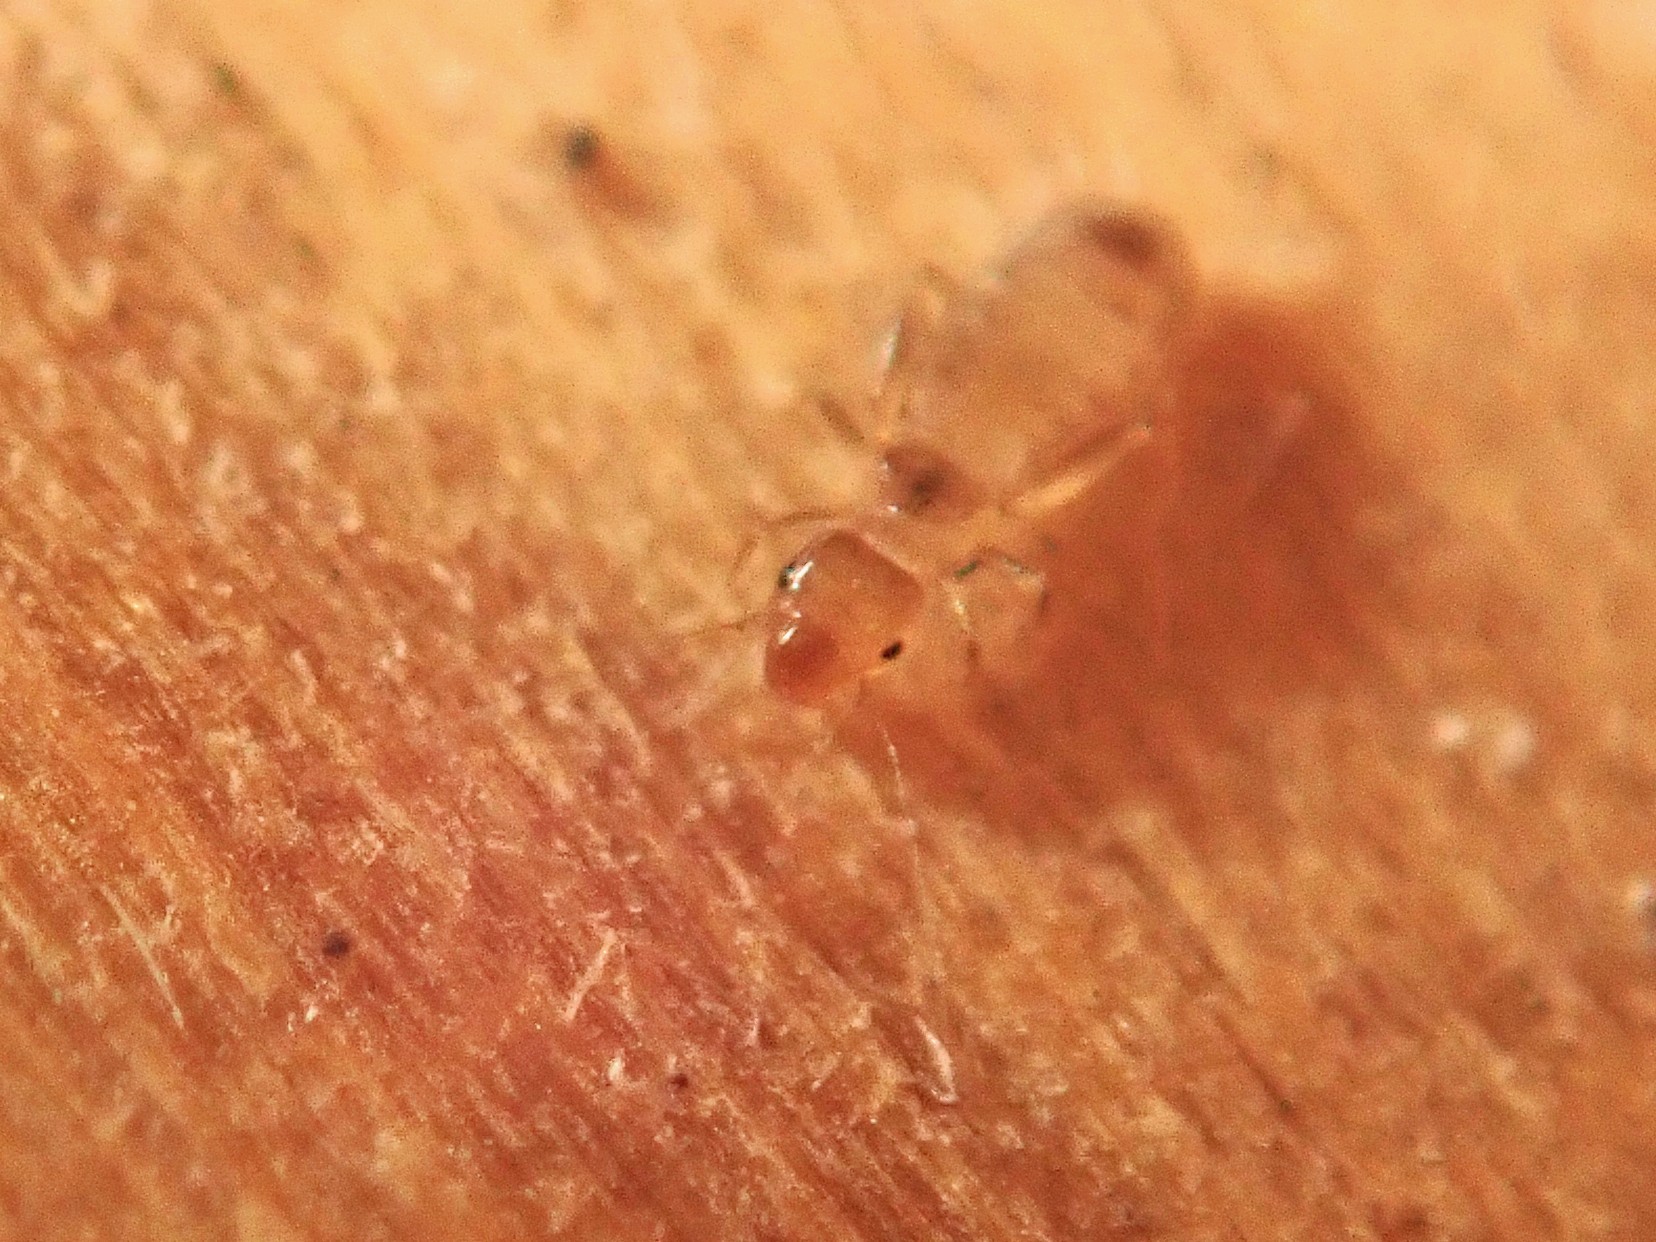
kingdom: Animalia
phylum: Arthropoda
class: Insecta
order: Psocodea
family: Liposcelididae
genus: Liposcelis
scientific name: Liposcelis bostrychophila
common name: Bark lice
